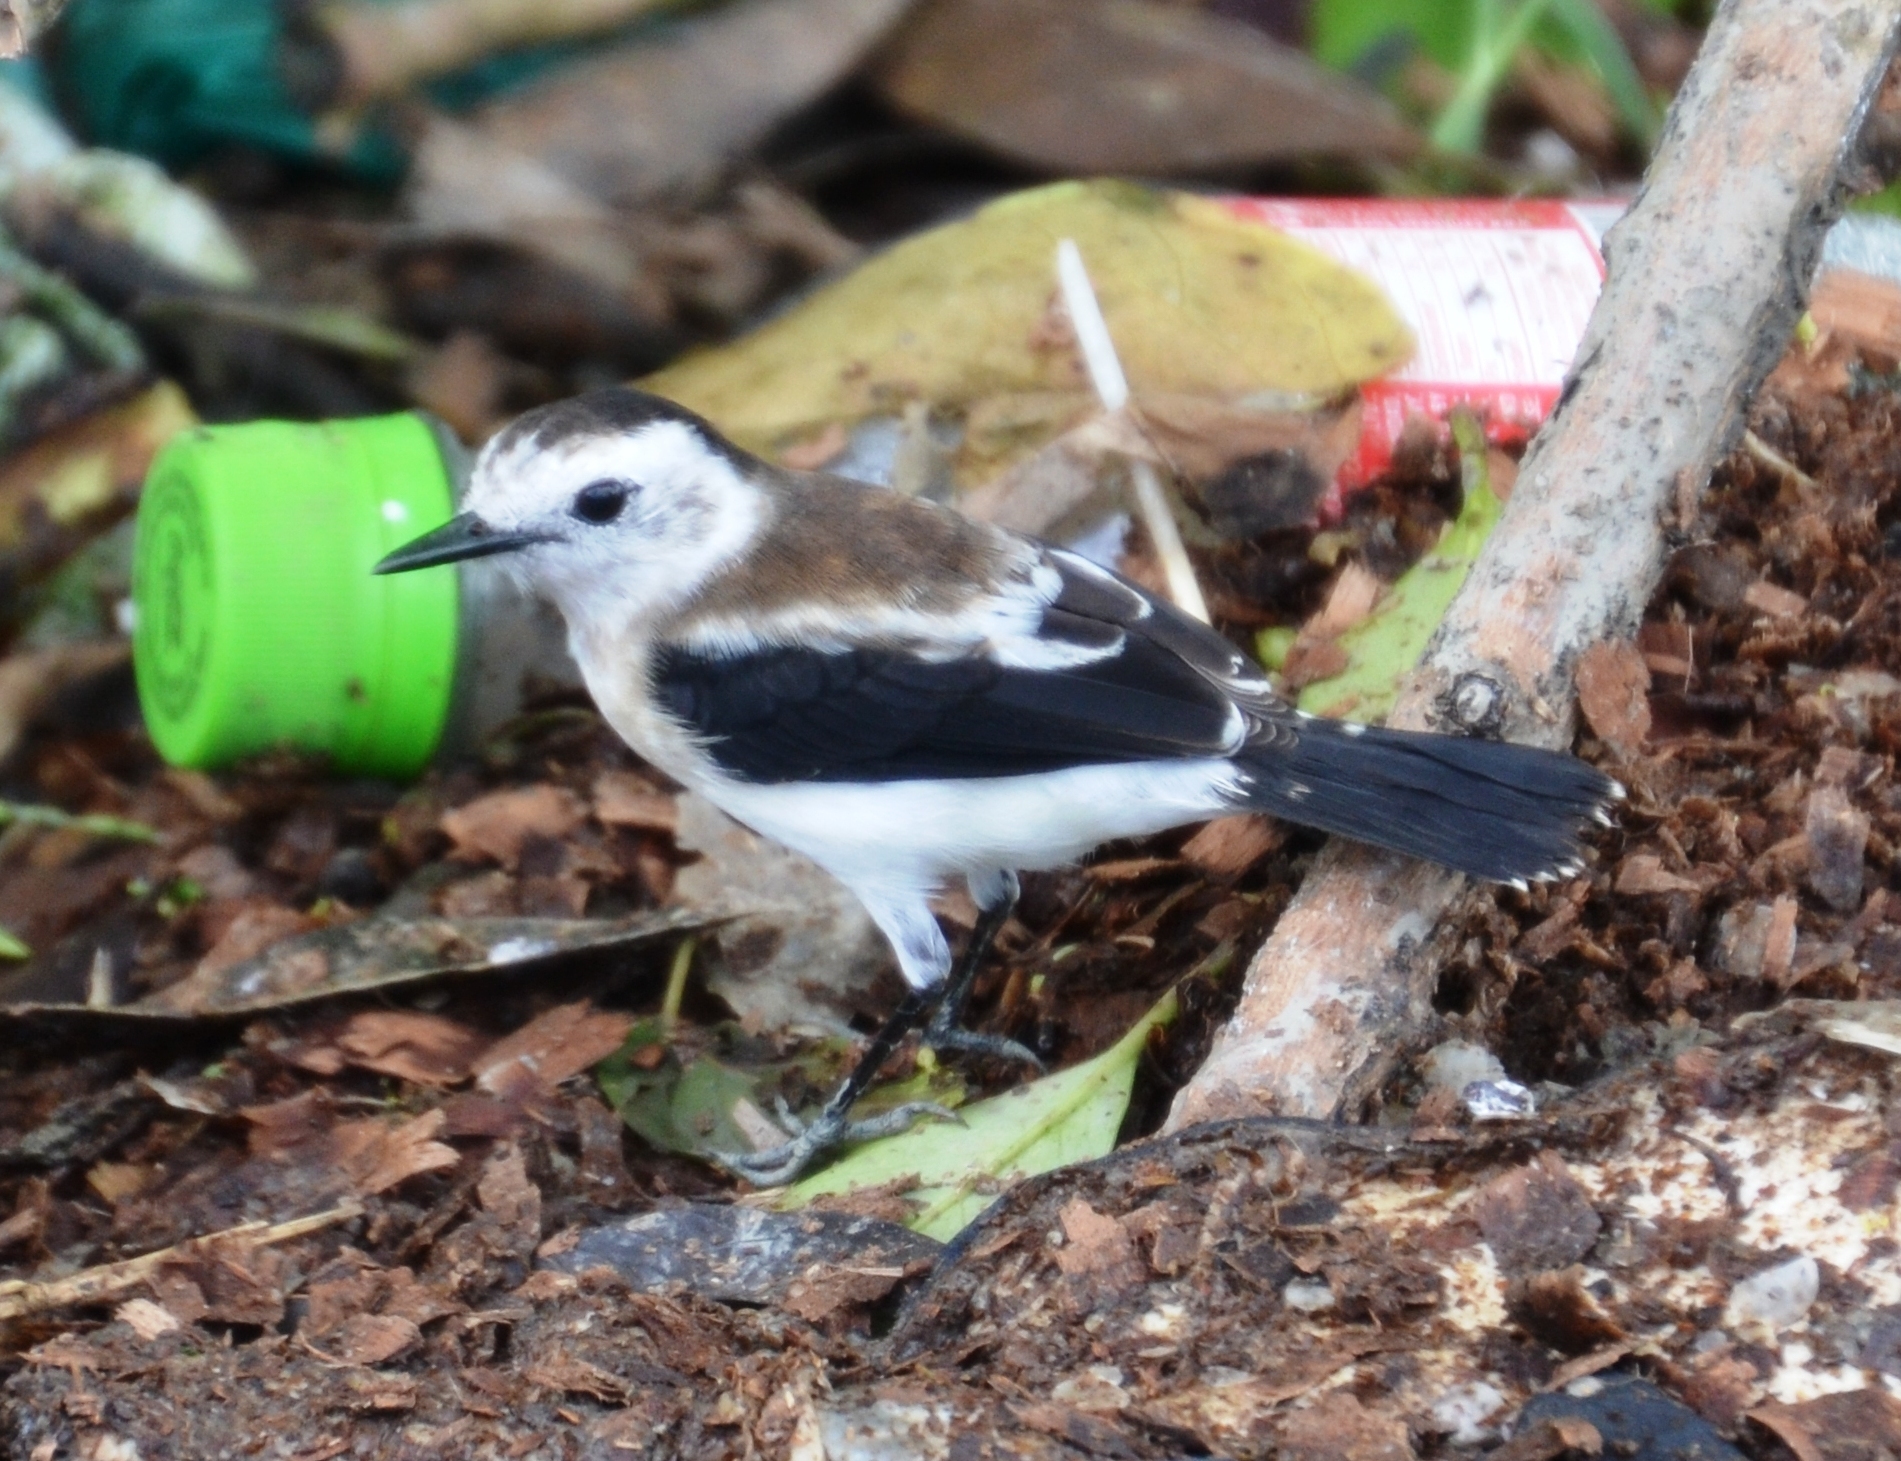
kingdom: Animalia
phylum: Chordata
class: Aves
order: Passeriformes
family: Tyrannidae
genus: Fluvicola
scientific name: Fluvicola pica
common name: Pied water-tyrant
